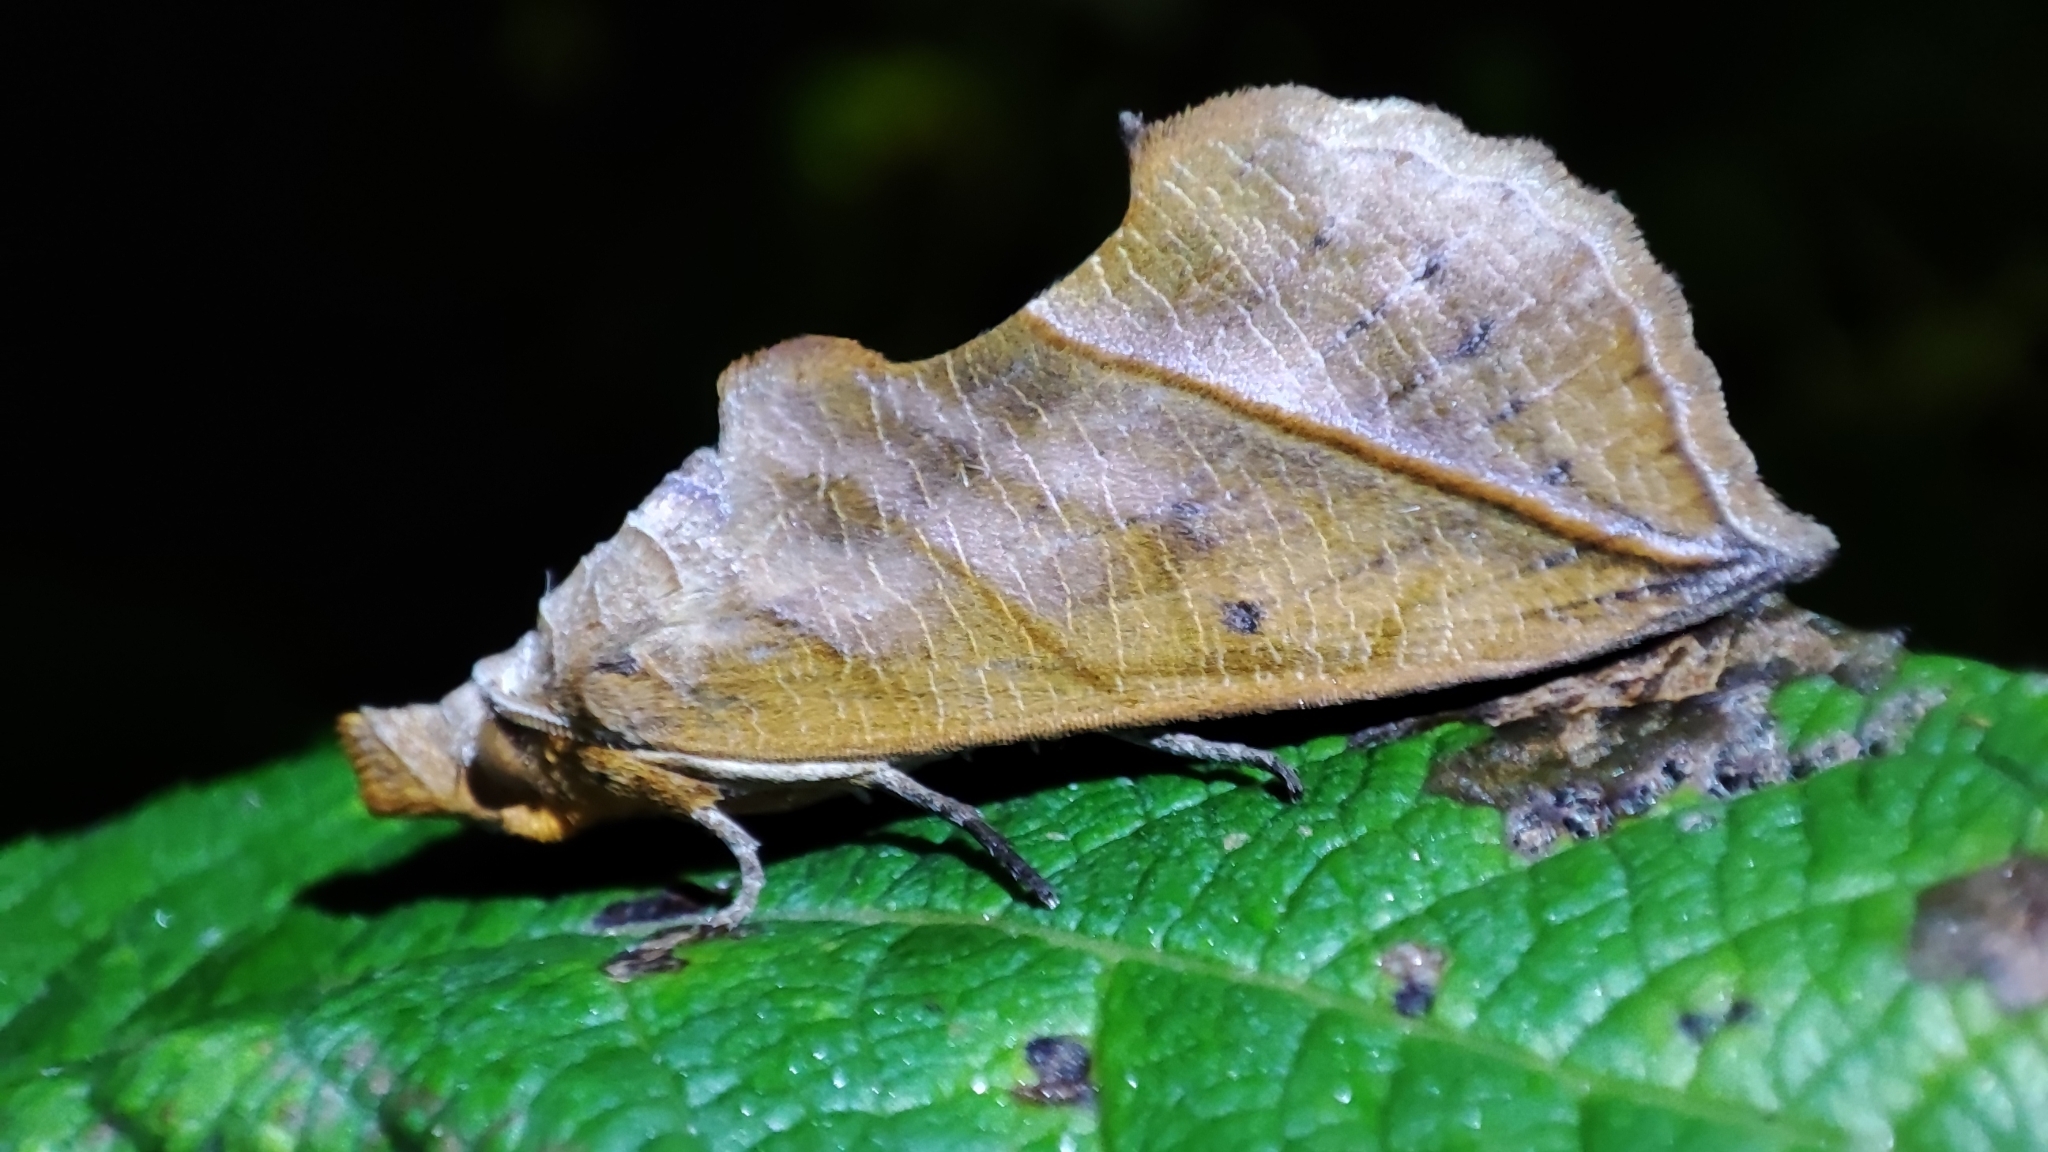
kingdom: Animalia
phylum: Arthropoda
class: Insecta
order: Lepidoptera
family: Erebidae
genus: Calyptra
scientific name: Calyptra lata
